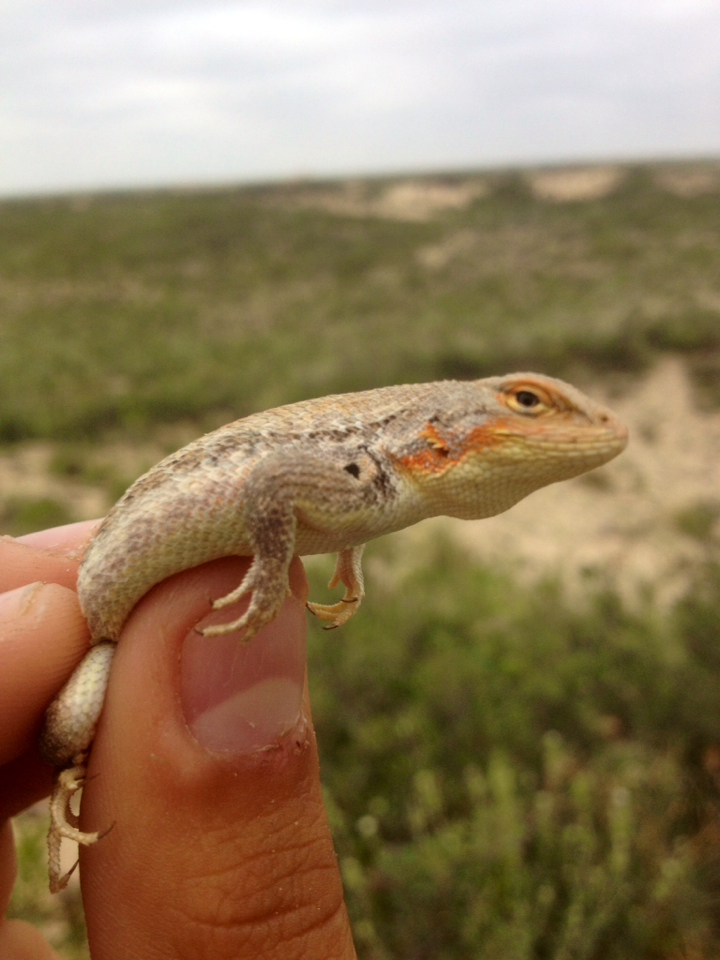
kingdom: Animalia
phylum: Chordata
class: Squamata
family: Phrynosomatidae
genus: Sceloporus
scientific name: Sceloporus arenicolus
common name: Dunes sagebrush lizard
